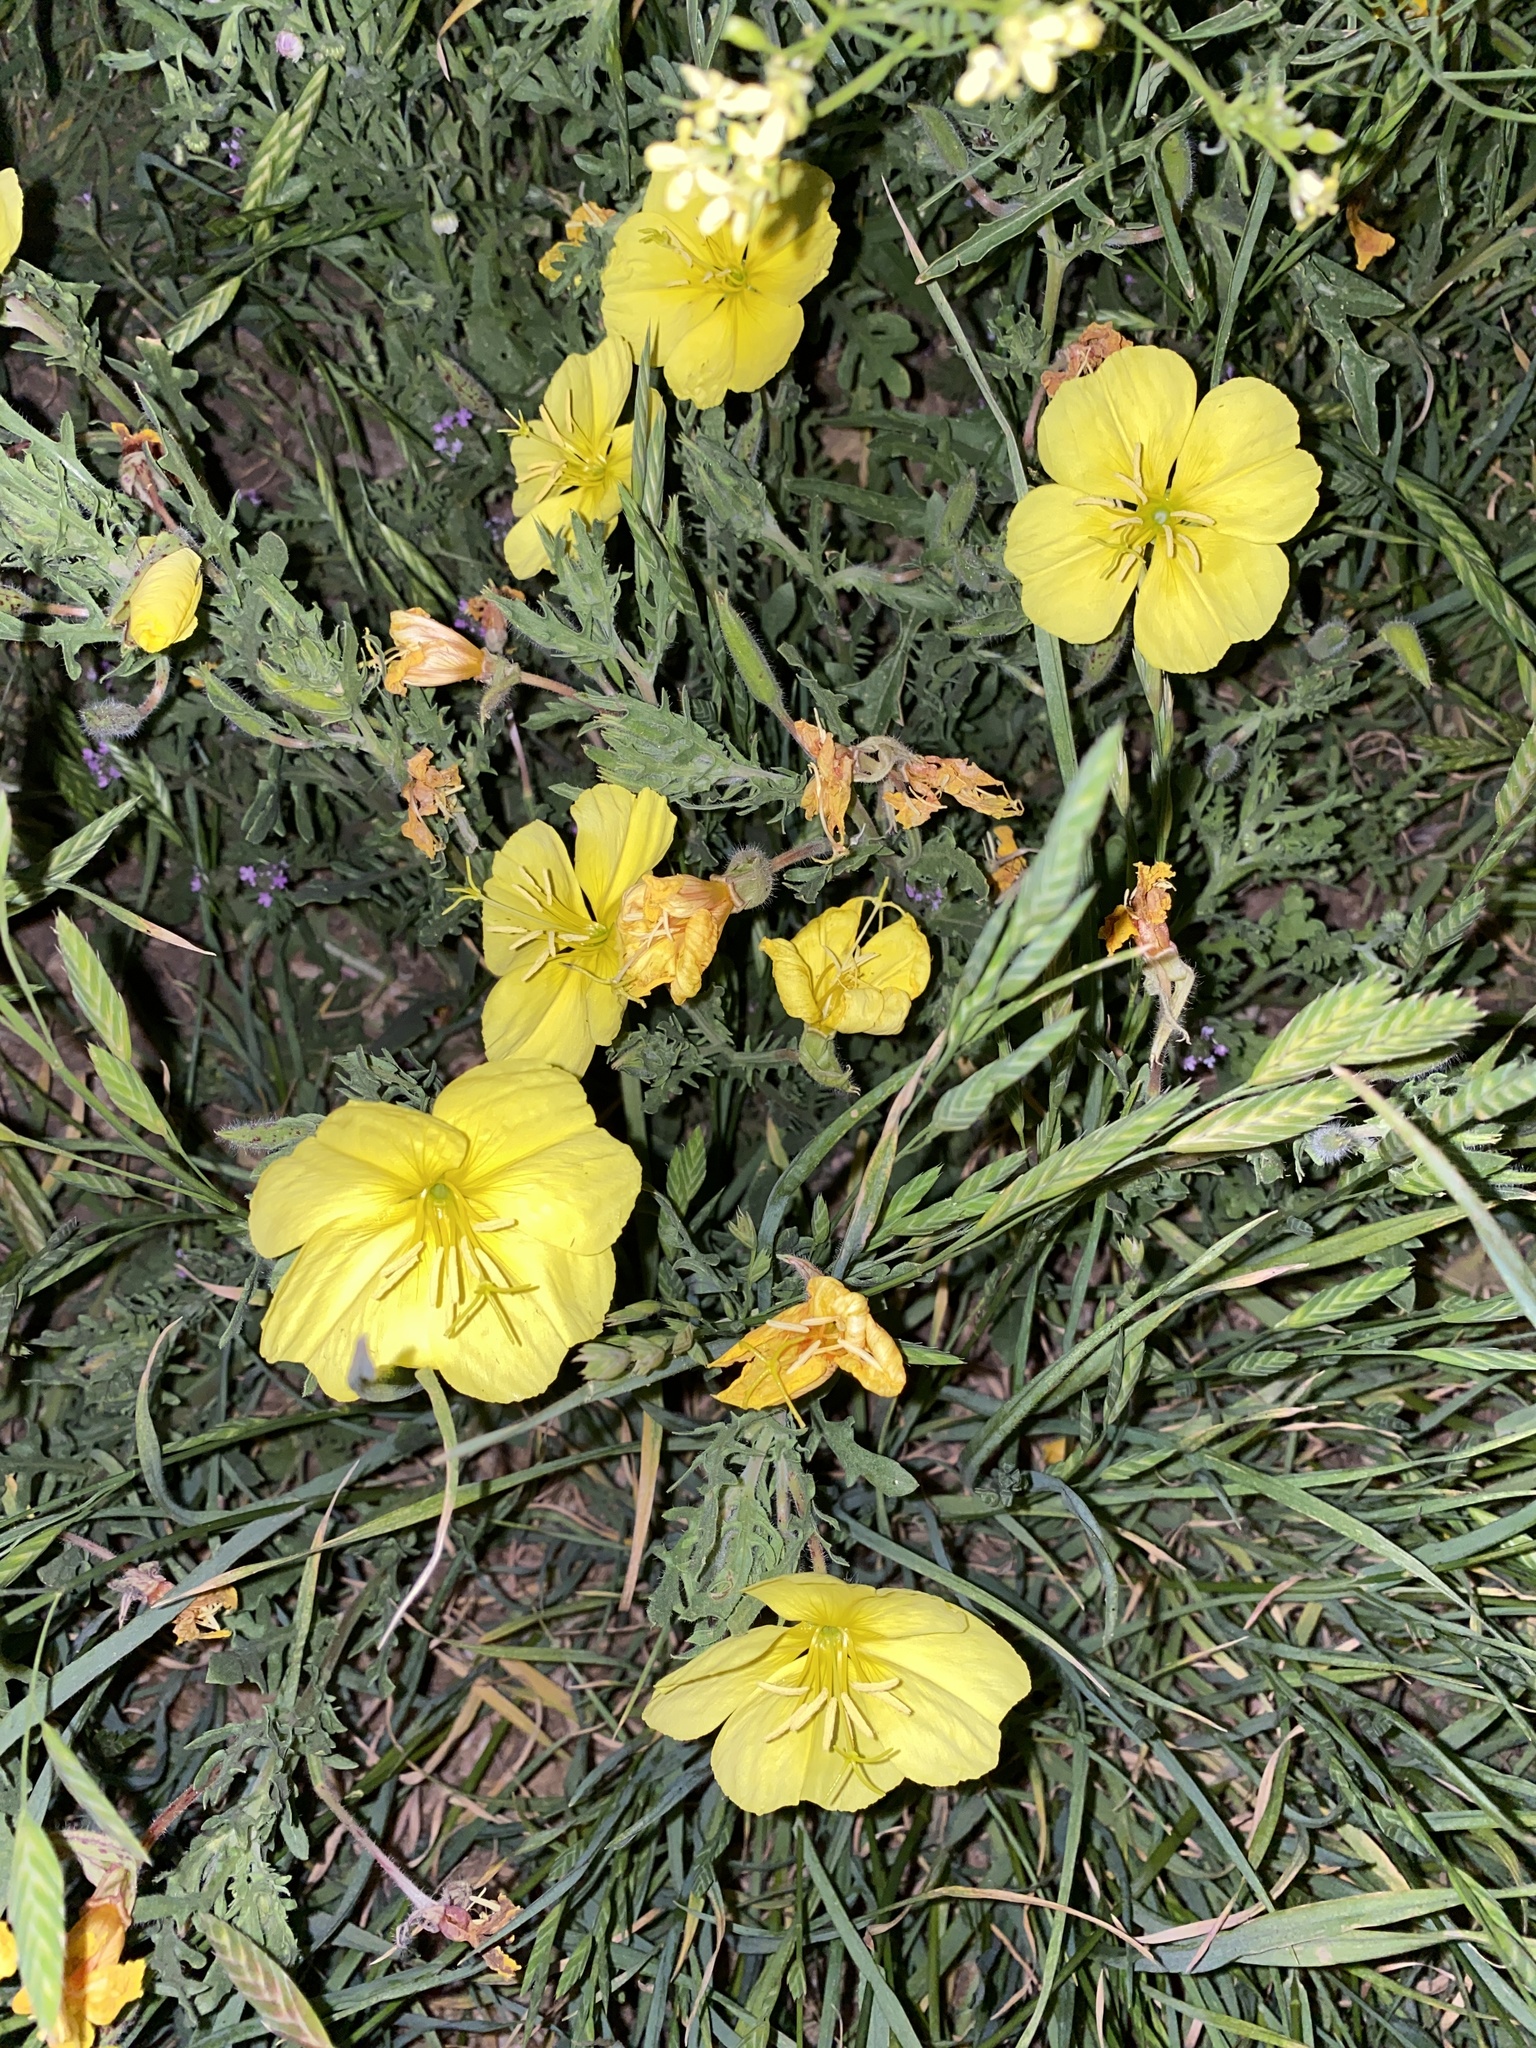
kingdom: Plantae
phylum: Tracheophyta
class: Magnoliopsida
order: Myrtales
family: Onagraceae
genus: Oenothera
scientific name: Oenothera grandis
